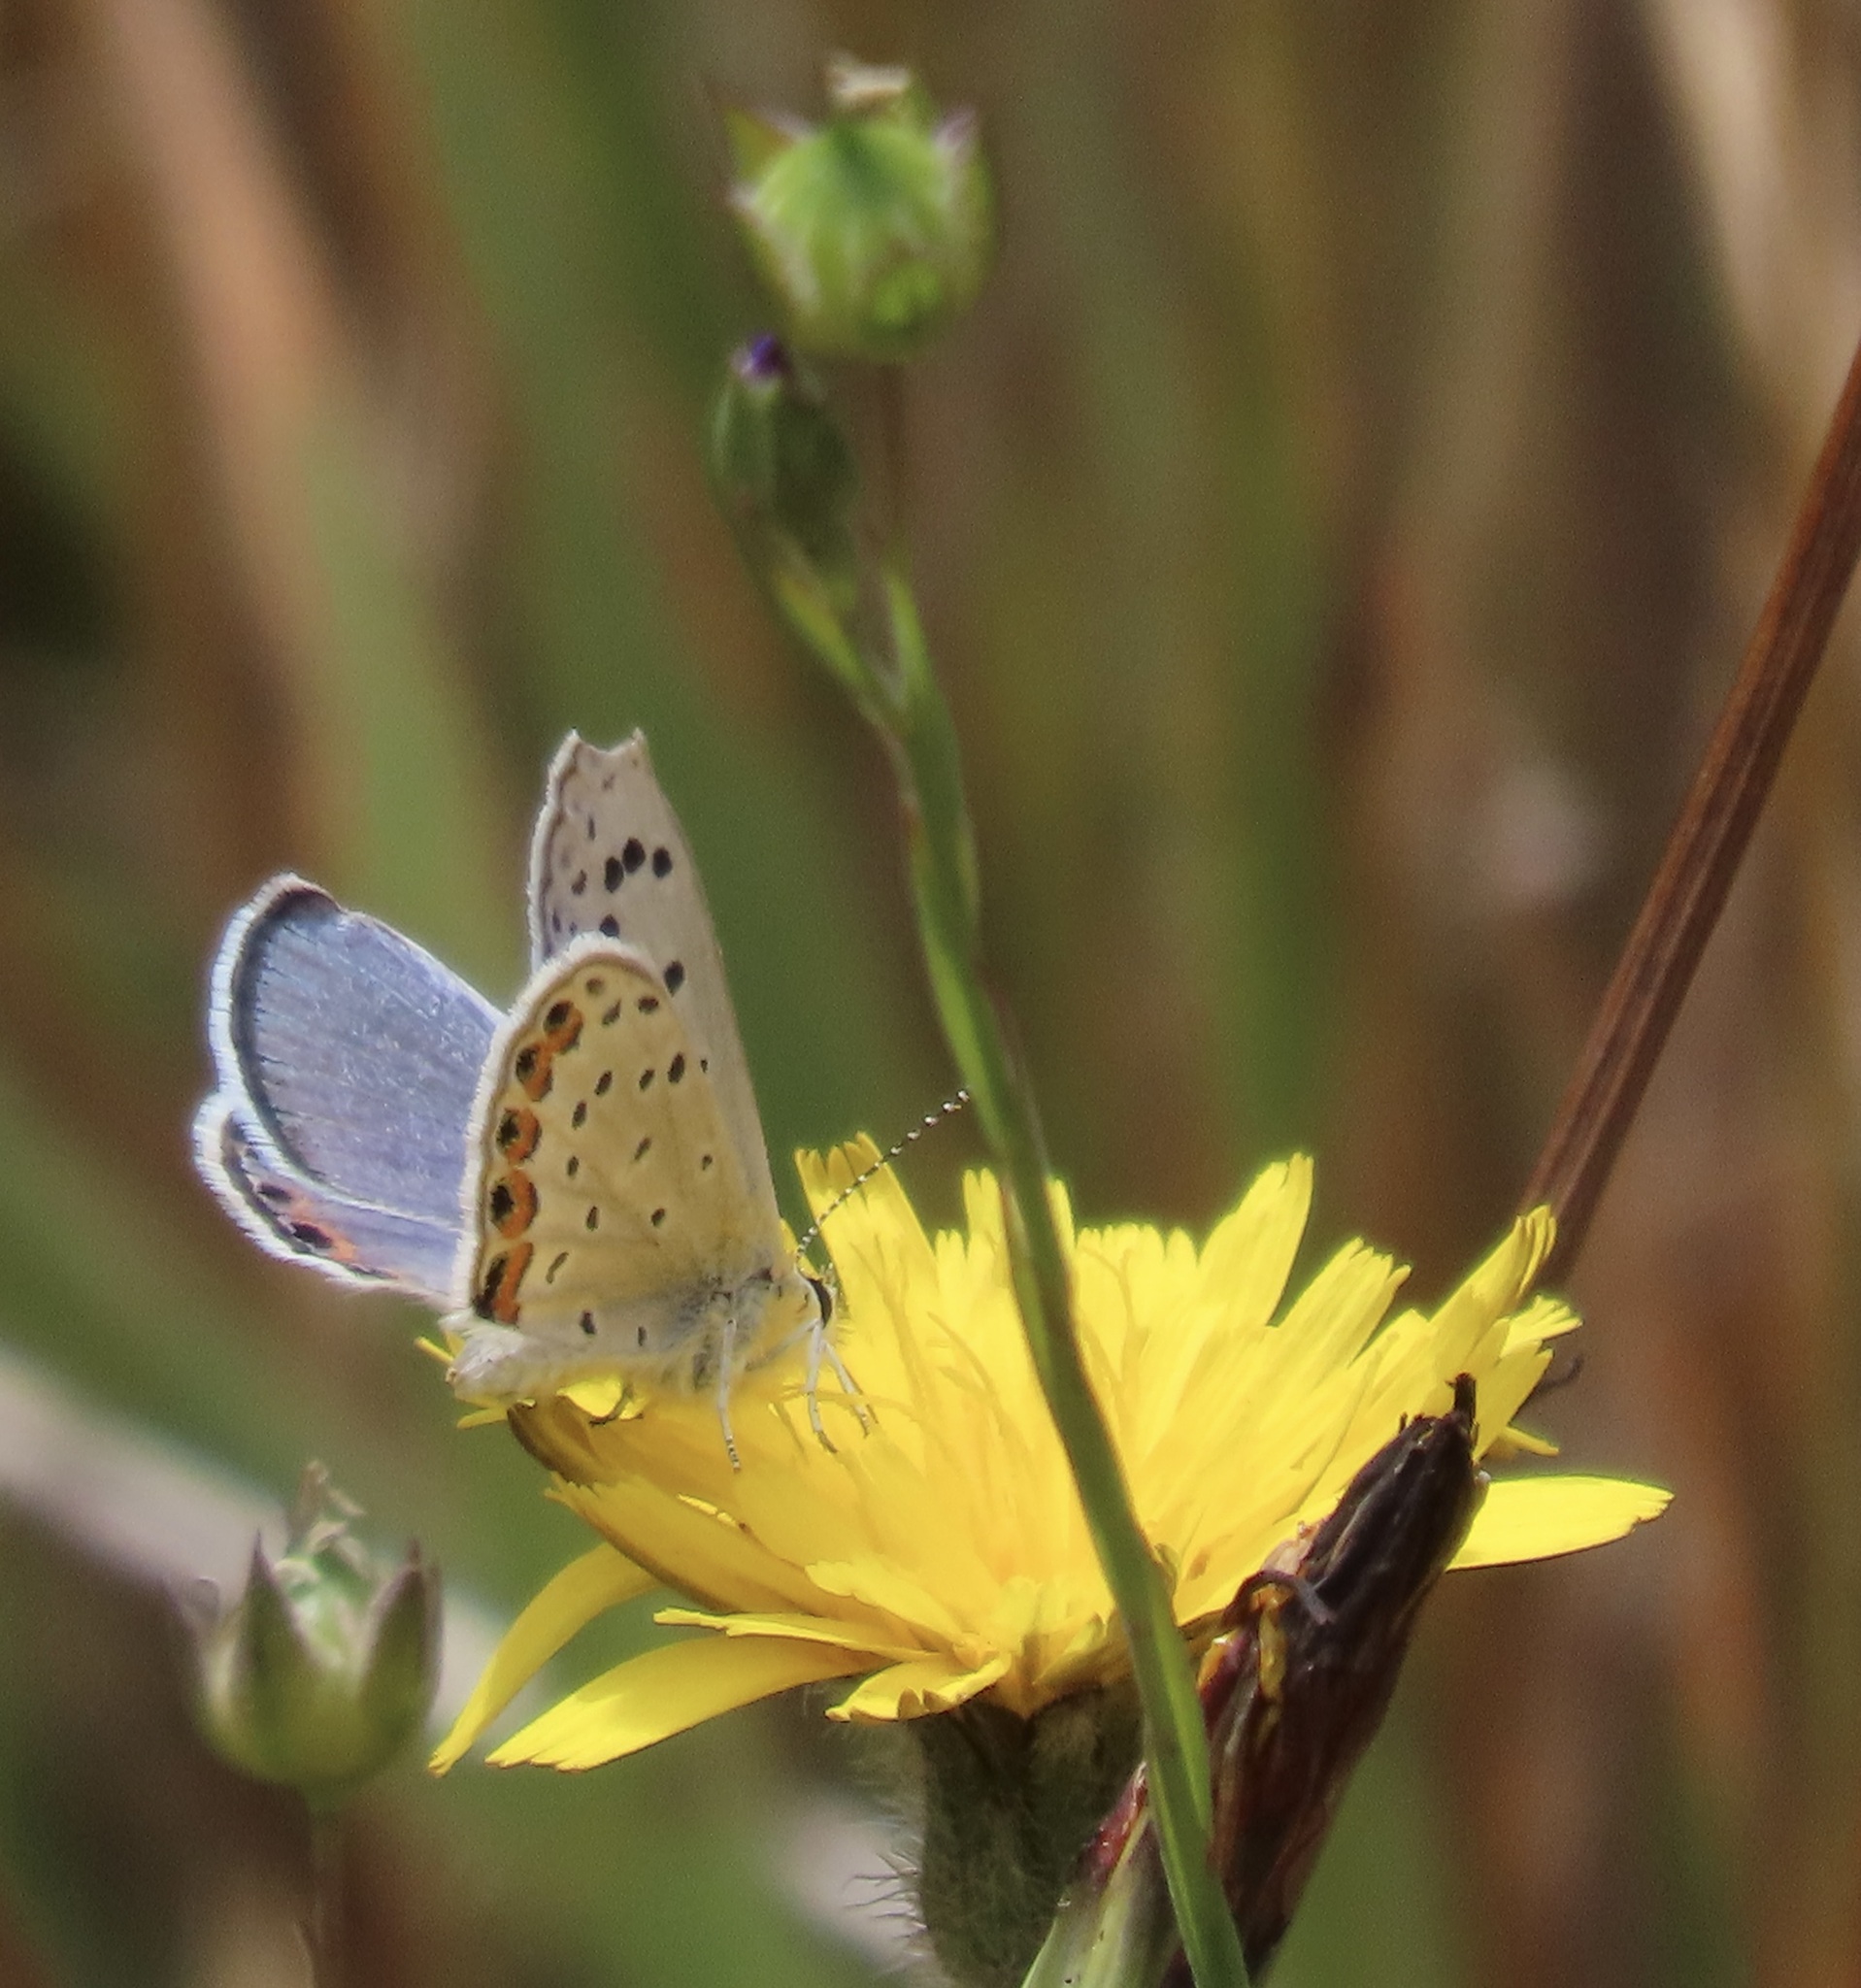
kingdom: Animalia
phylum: Arthropoda
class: Insecta
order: Lepidoptera
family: Lycaenidae
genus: Icaricia
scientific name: Icaricia acmon
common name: Acmon blue
